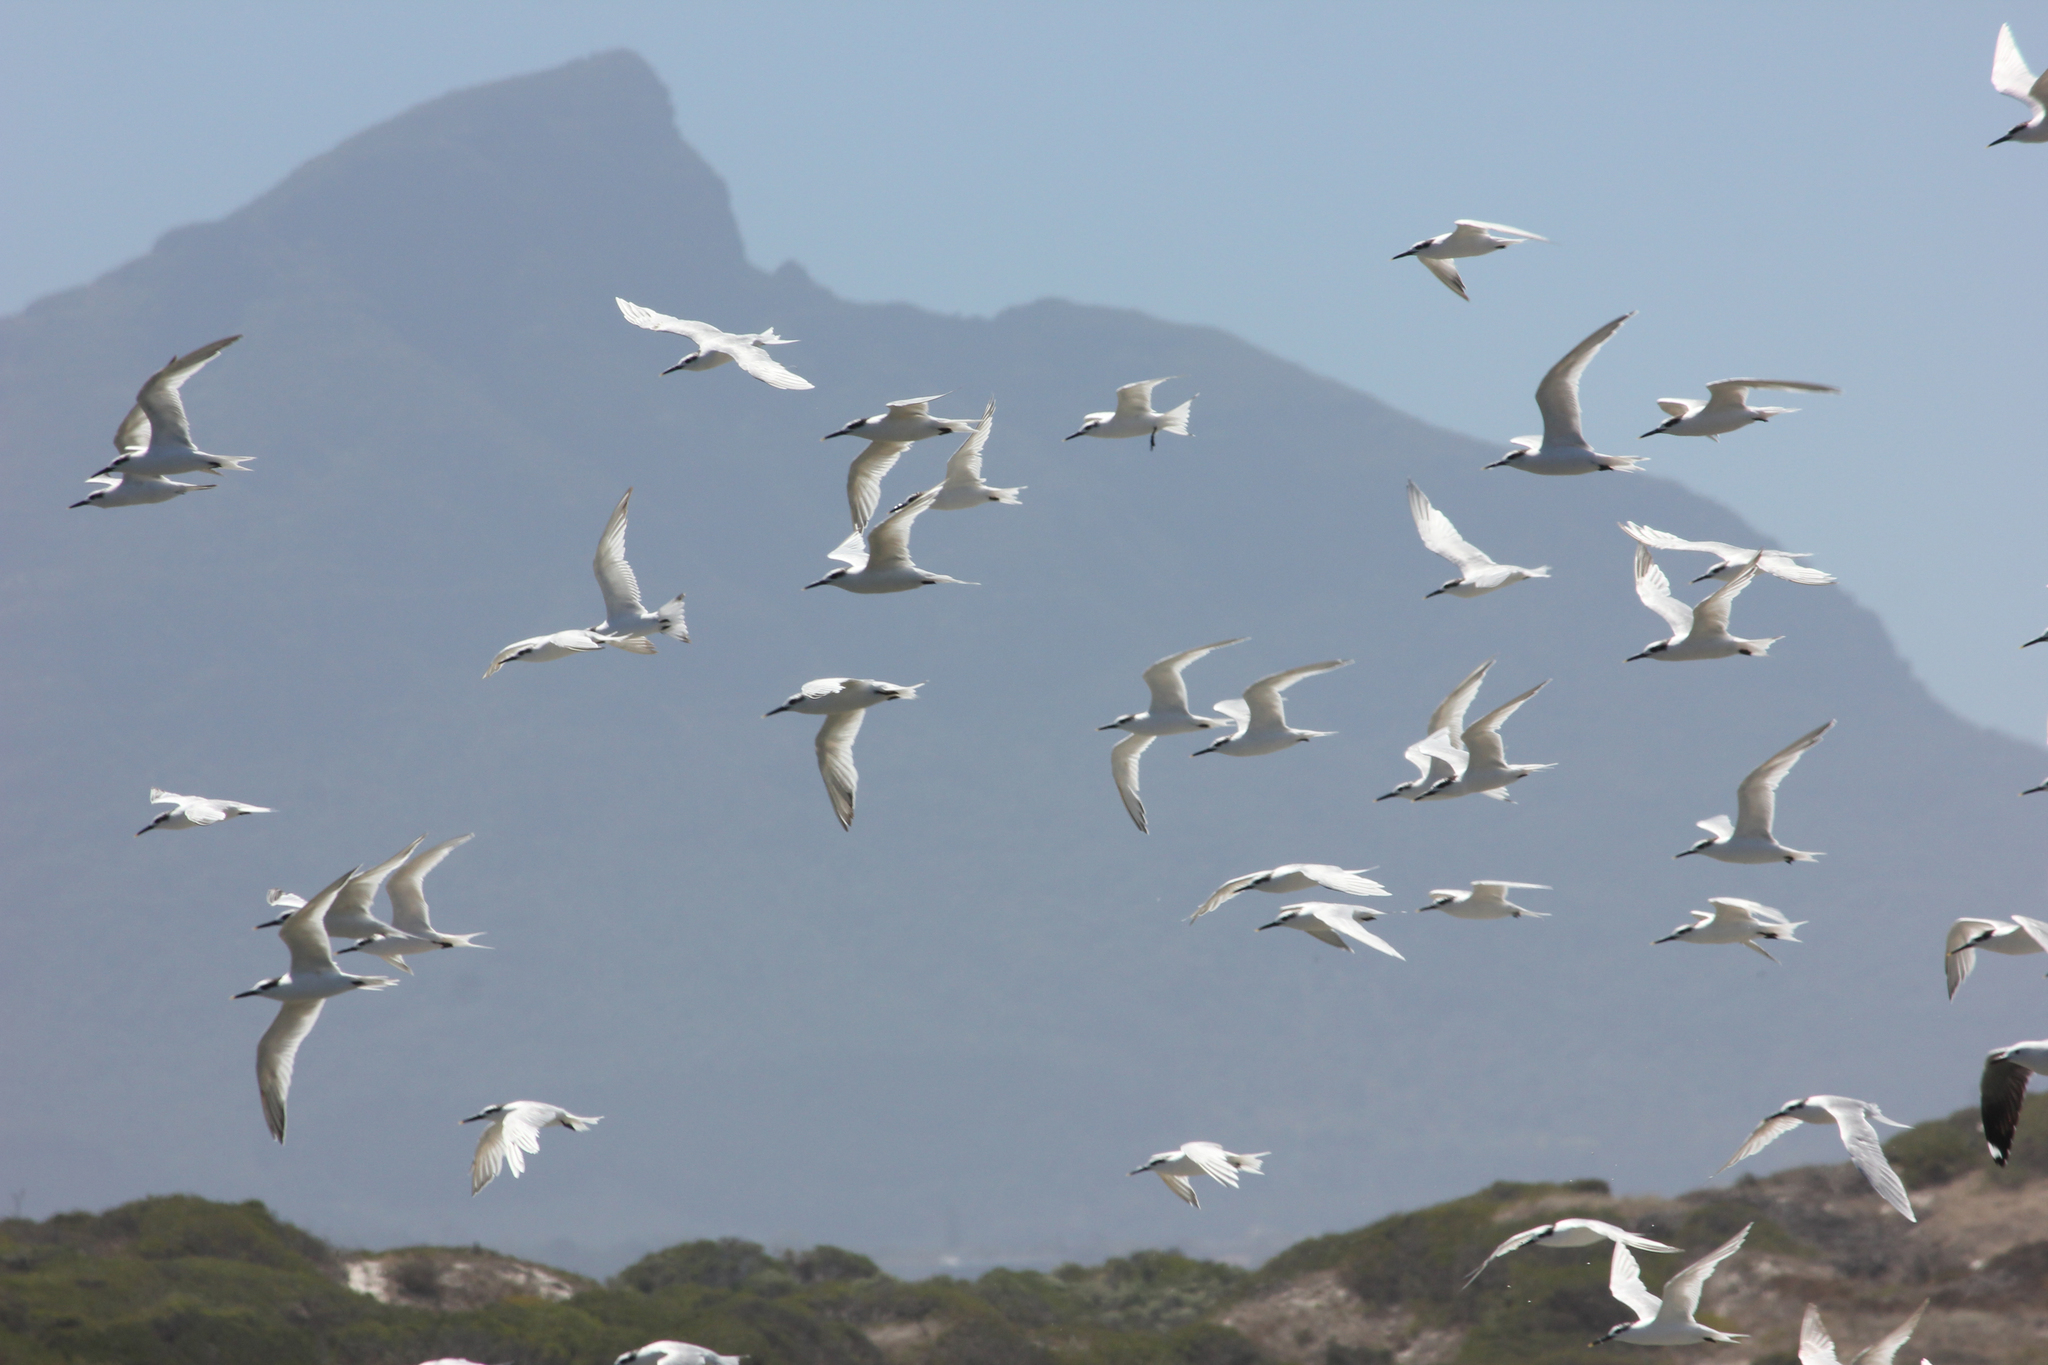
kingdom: Animalia
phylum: Chordata
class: Aves
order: Charadriiformes
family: Laridae
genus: Thalasseus
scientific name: Thalasseus sandvicensis
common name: Sandwich tern
